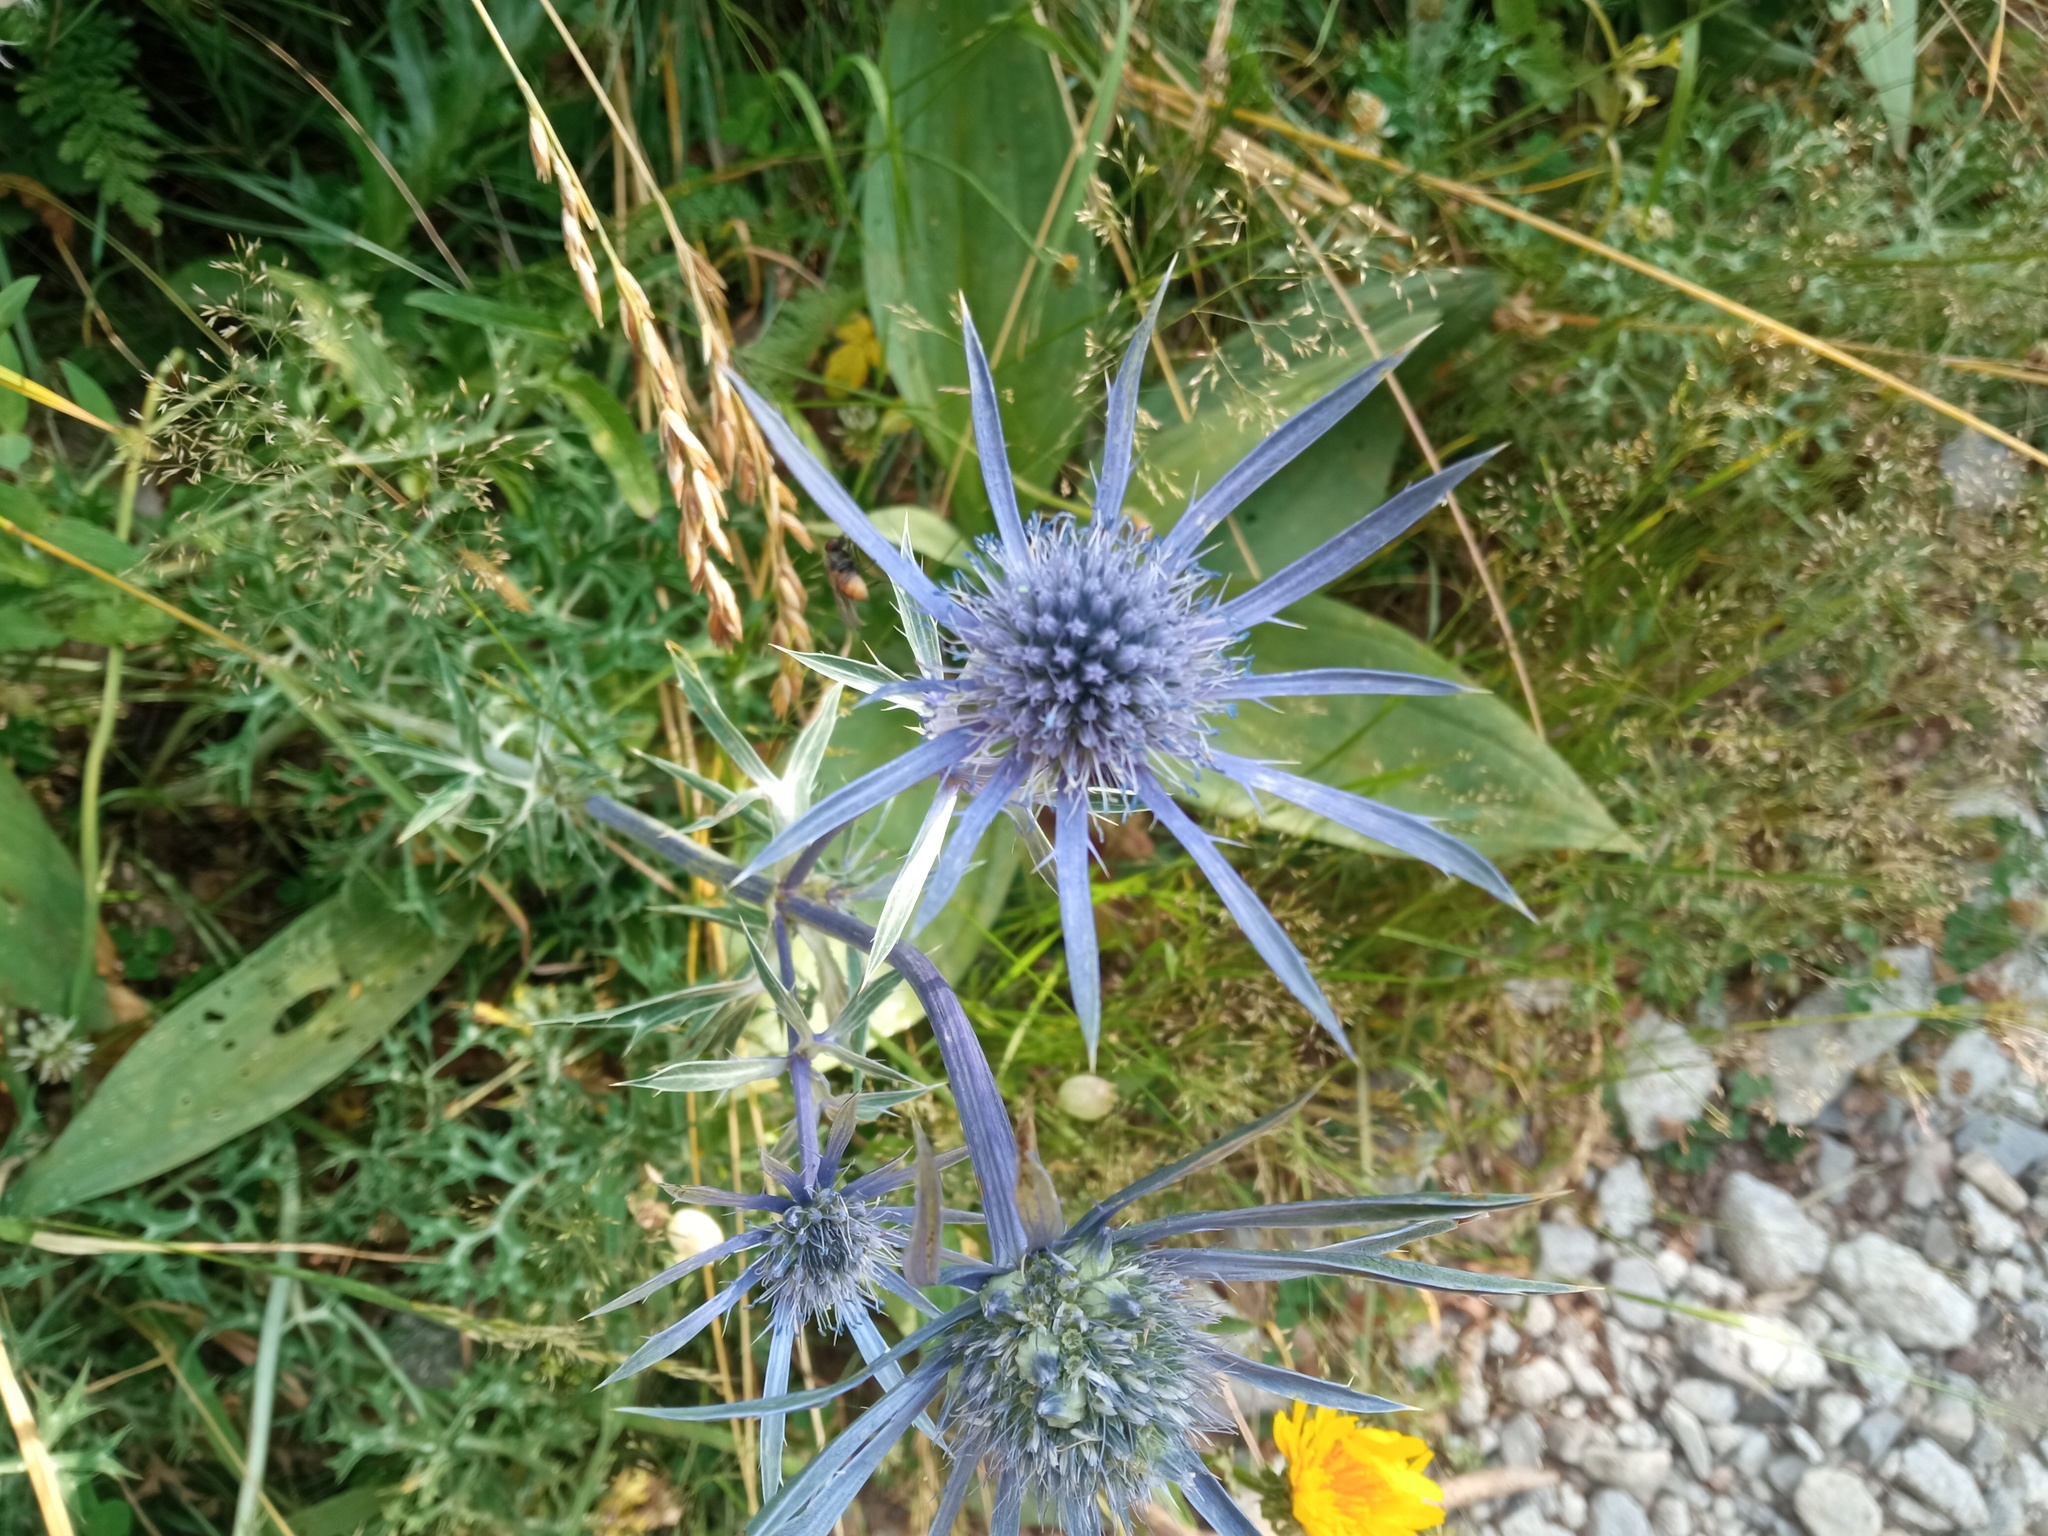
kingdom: Plantae
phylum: Tracheophyta
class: Magnoliopsida
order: Apiales
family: Apiaceae
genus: Eryngium
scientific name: Eryngium bourgatii
